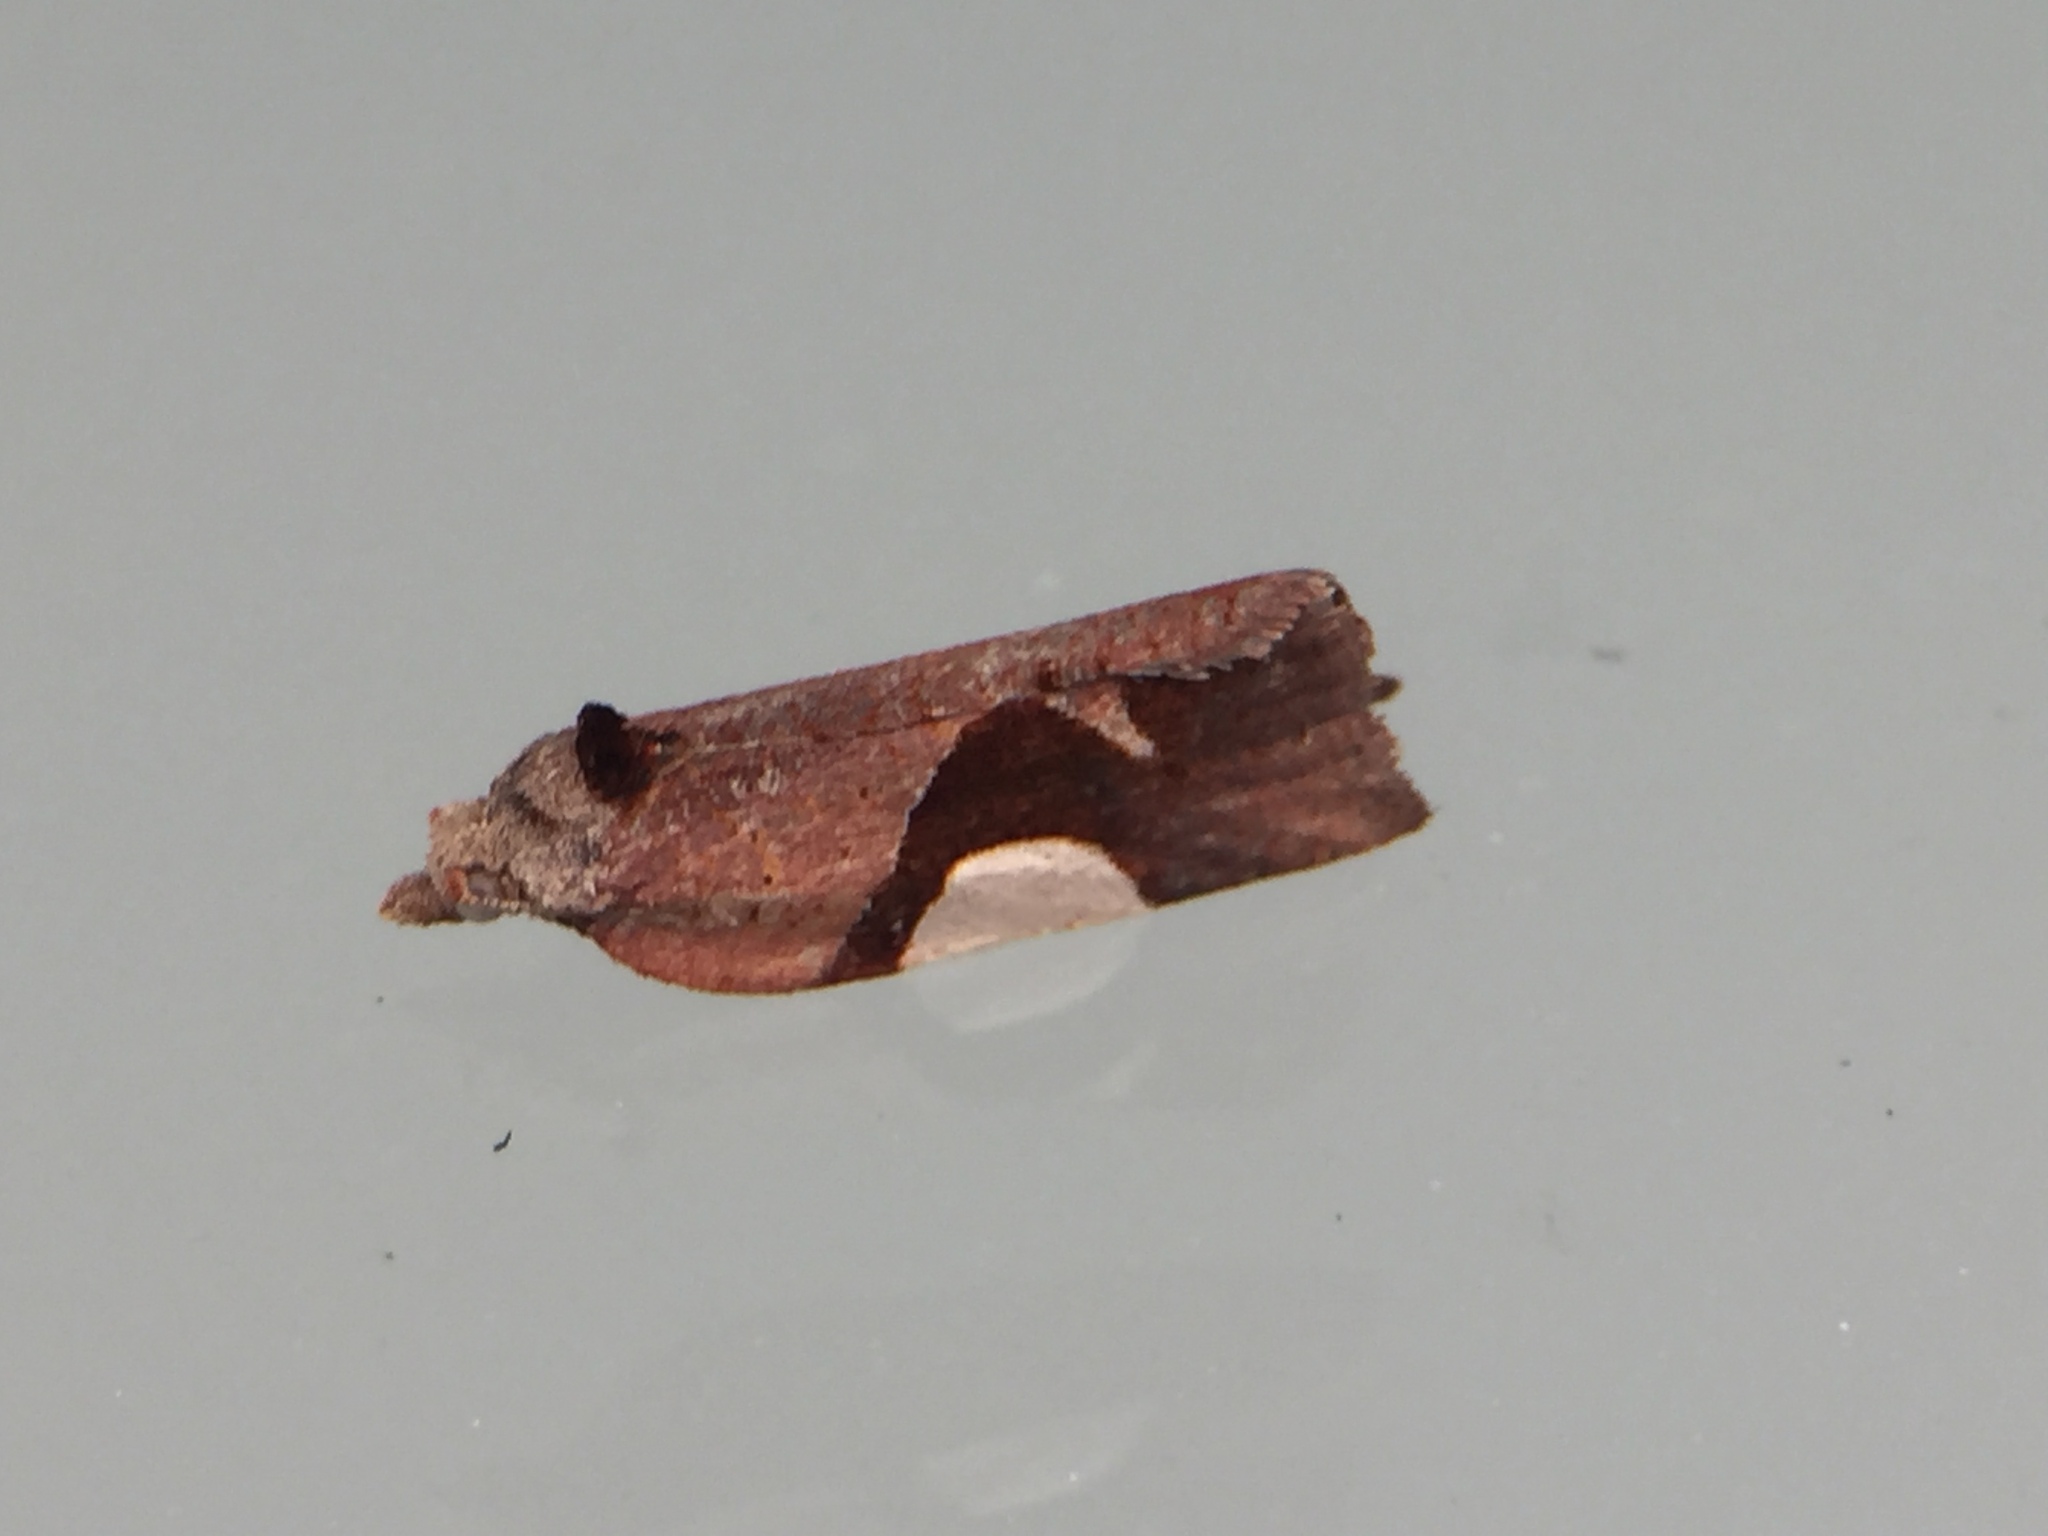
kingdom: Animalia
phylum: Arthropoda
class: Insecta
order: Lepidoptera
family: Tortricidae
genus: Pyrgotis
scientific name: Pyrgotis plagiatana
